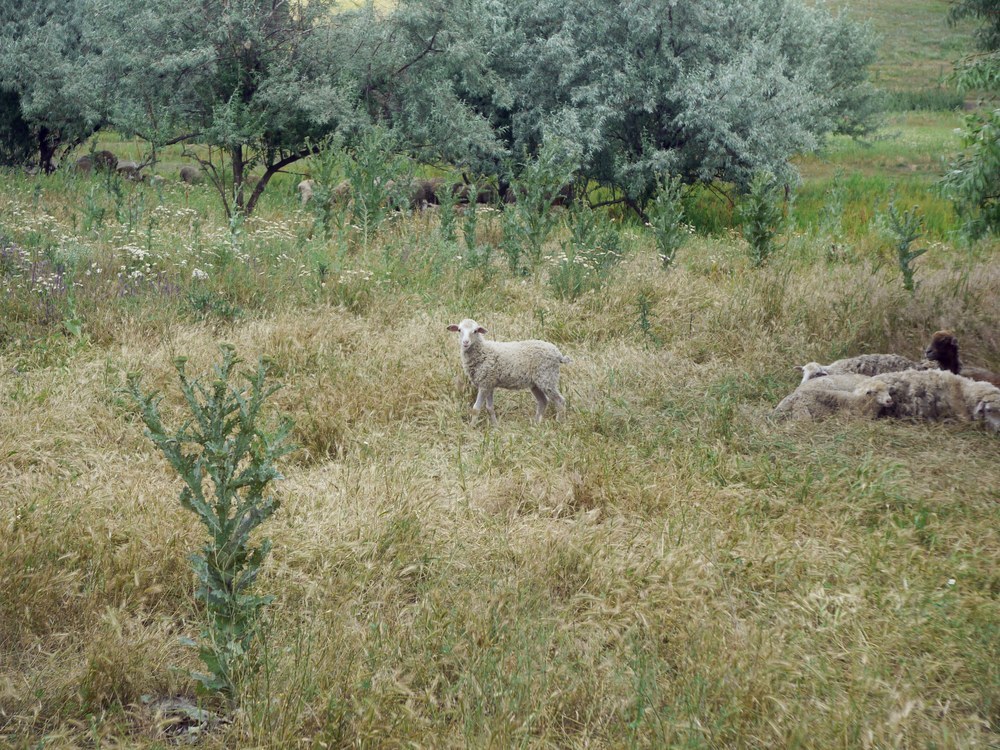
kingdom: Animalia
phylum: Chordata
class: Mammalia
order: Artiodactyla
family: Bovidae
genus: Ovis
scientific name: Ovis aries
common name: Domestic sheep
